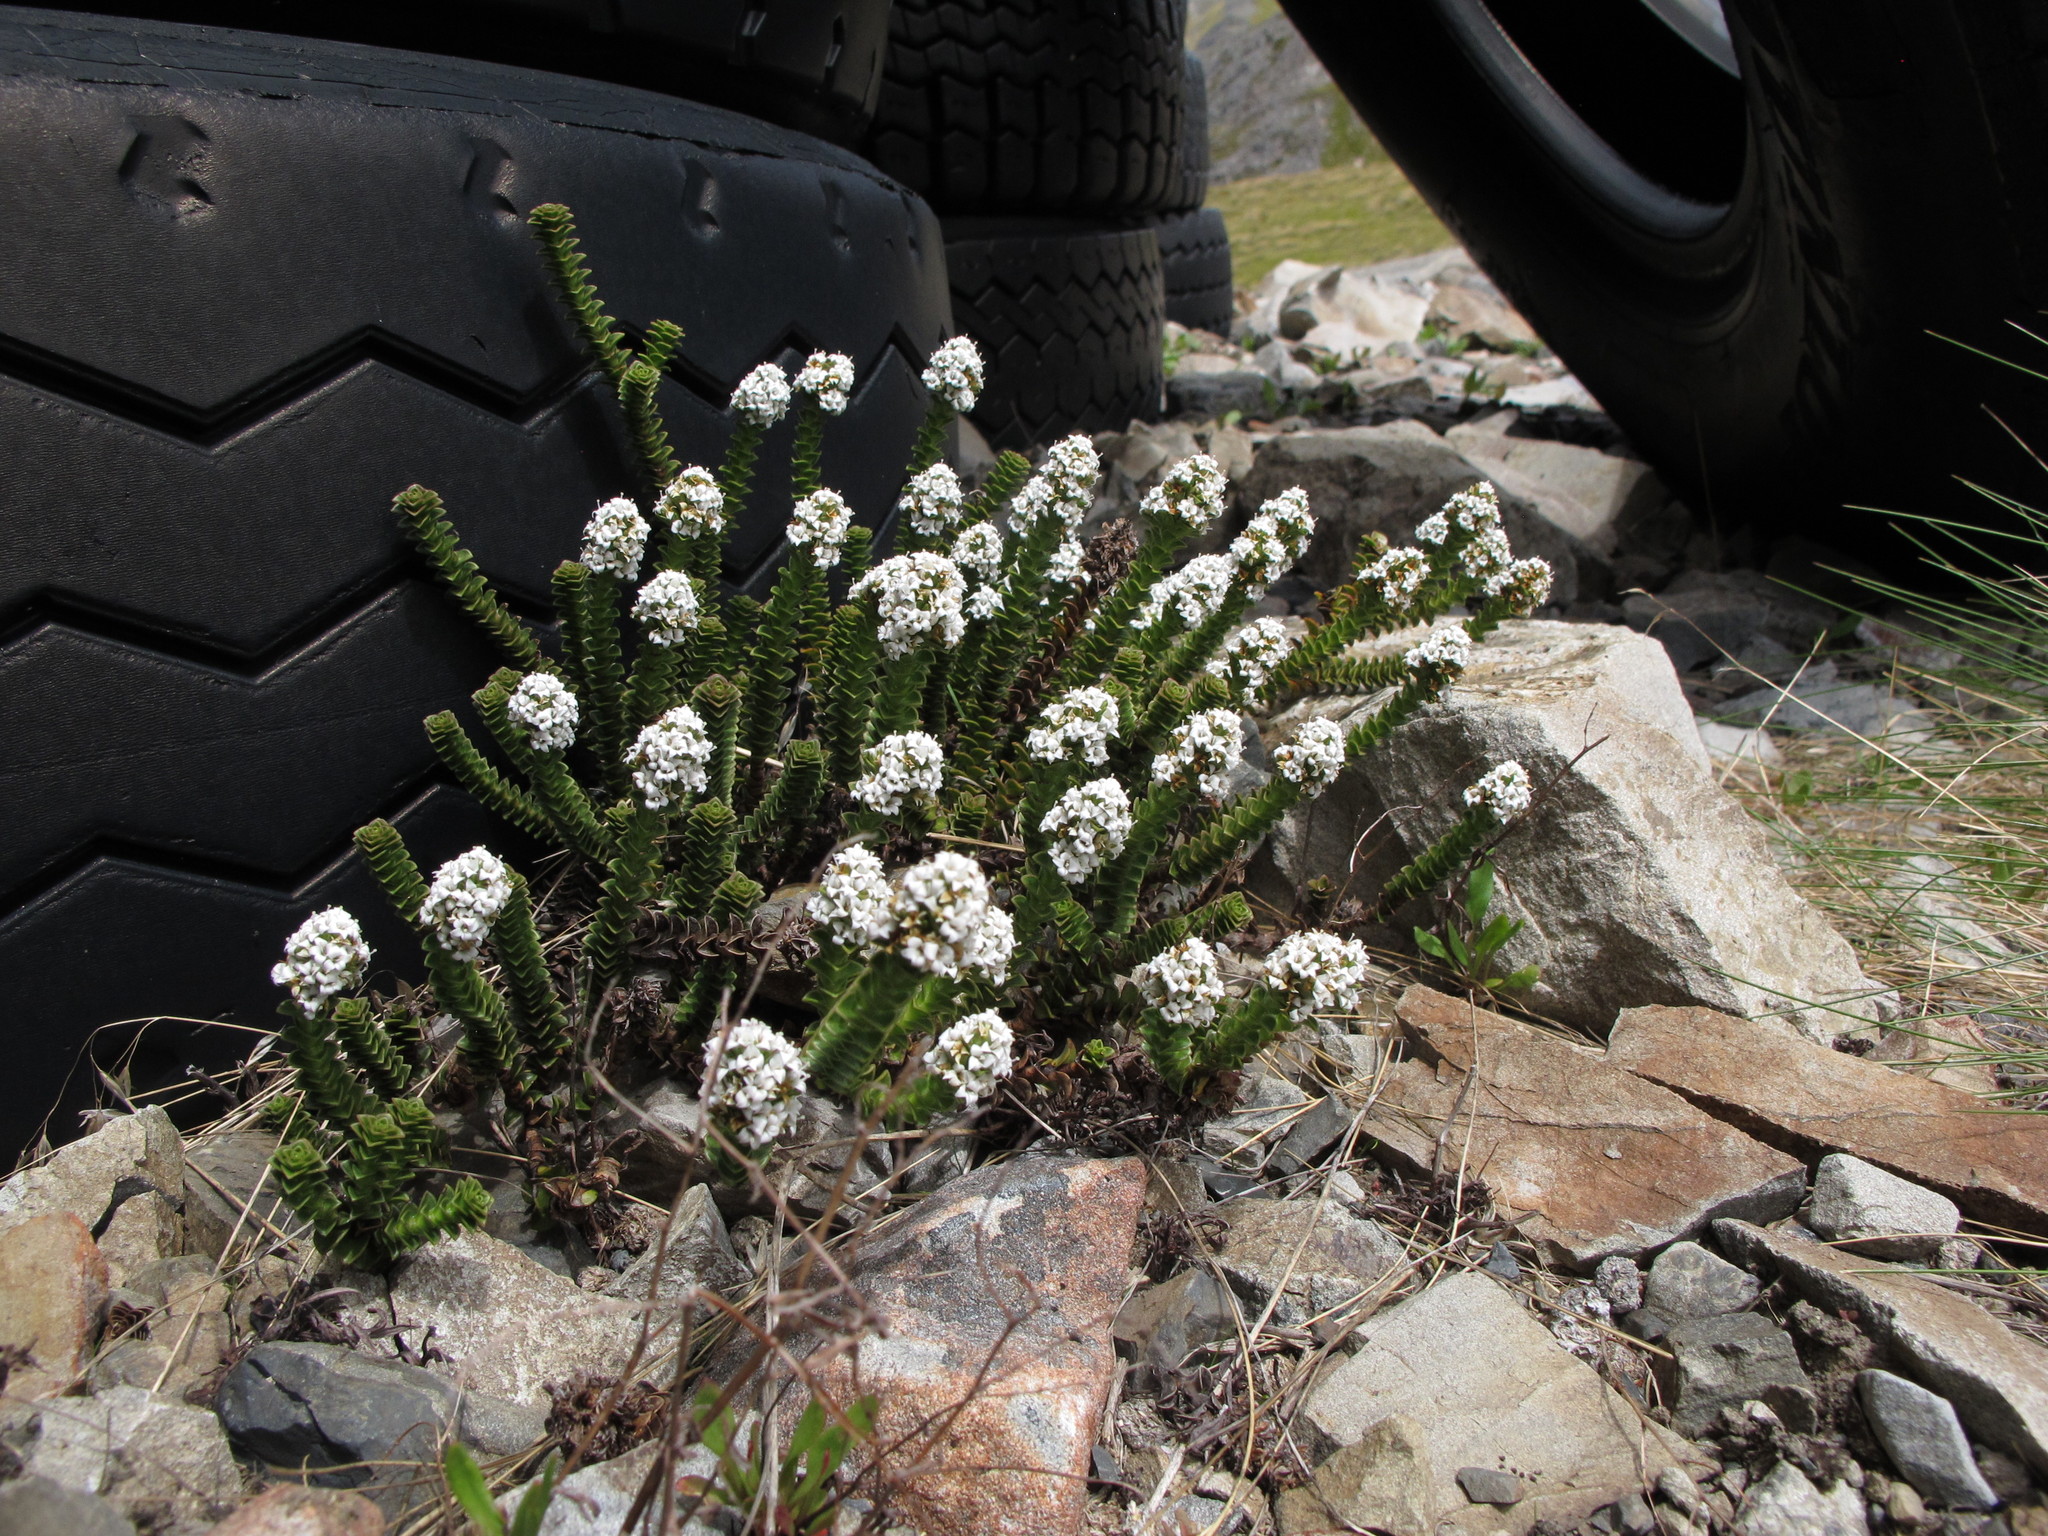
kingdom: Plantae
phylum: Tracheophyta
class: Magnoliopsida
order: Lamiales
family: Plantaginaceae
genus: Veronica
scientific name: Veronica epacridea
